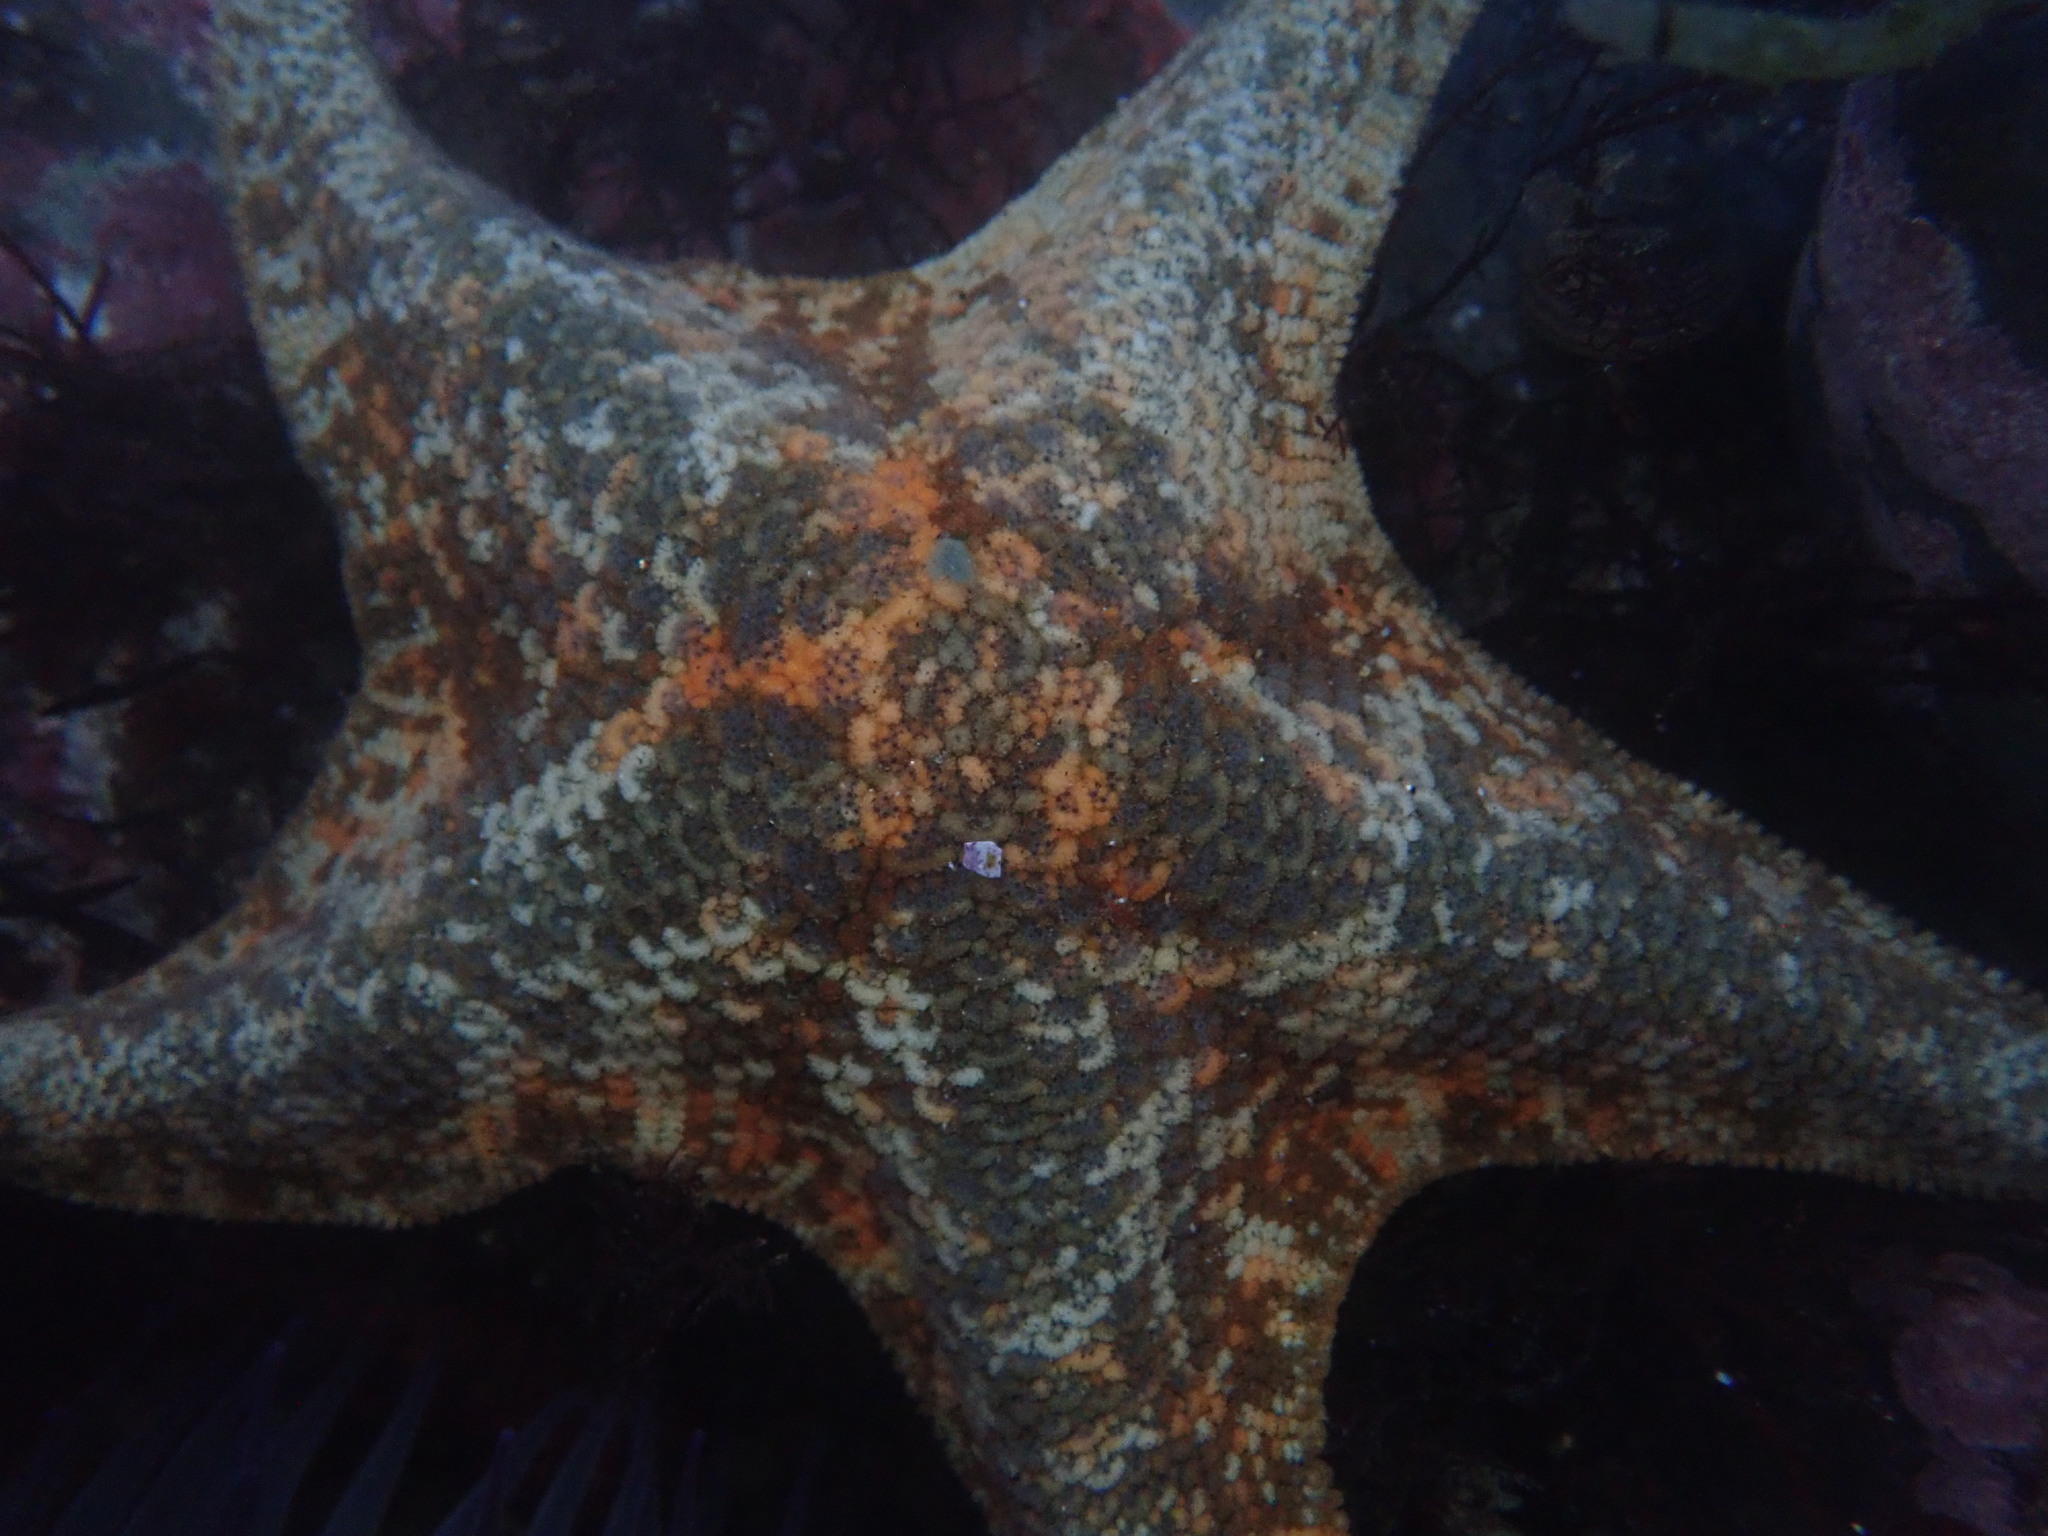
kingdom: Animalia
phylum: Echinodermata
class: Asteroidea
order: Valvatida
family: Asterinidae
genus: Patiria
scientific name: Patiria miniata
